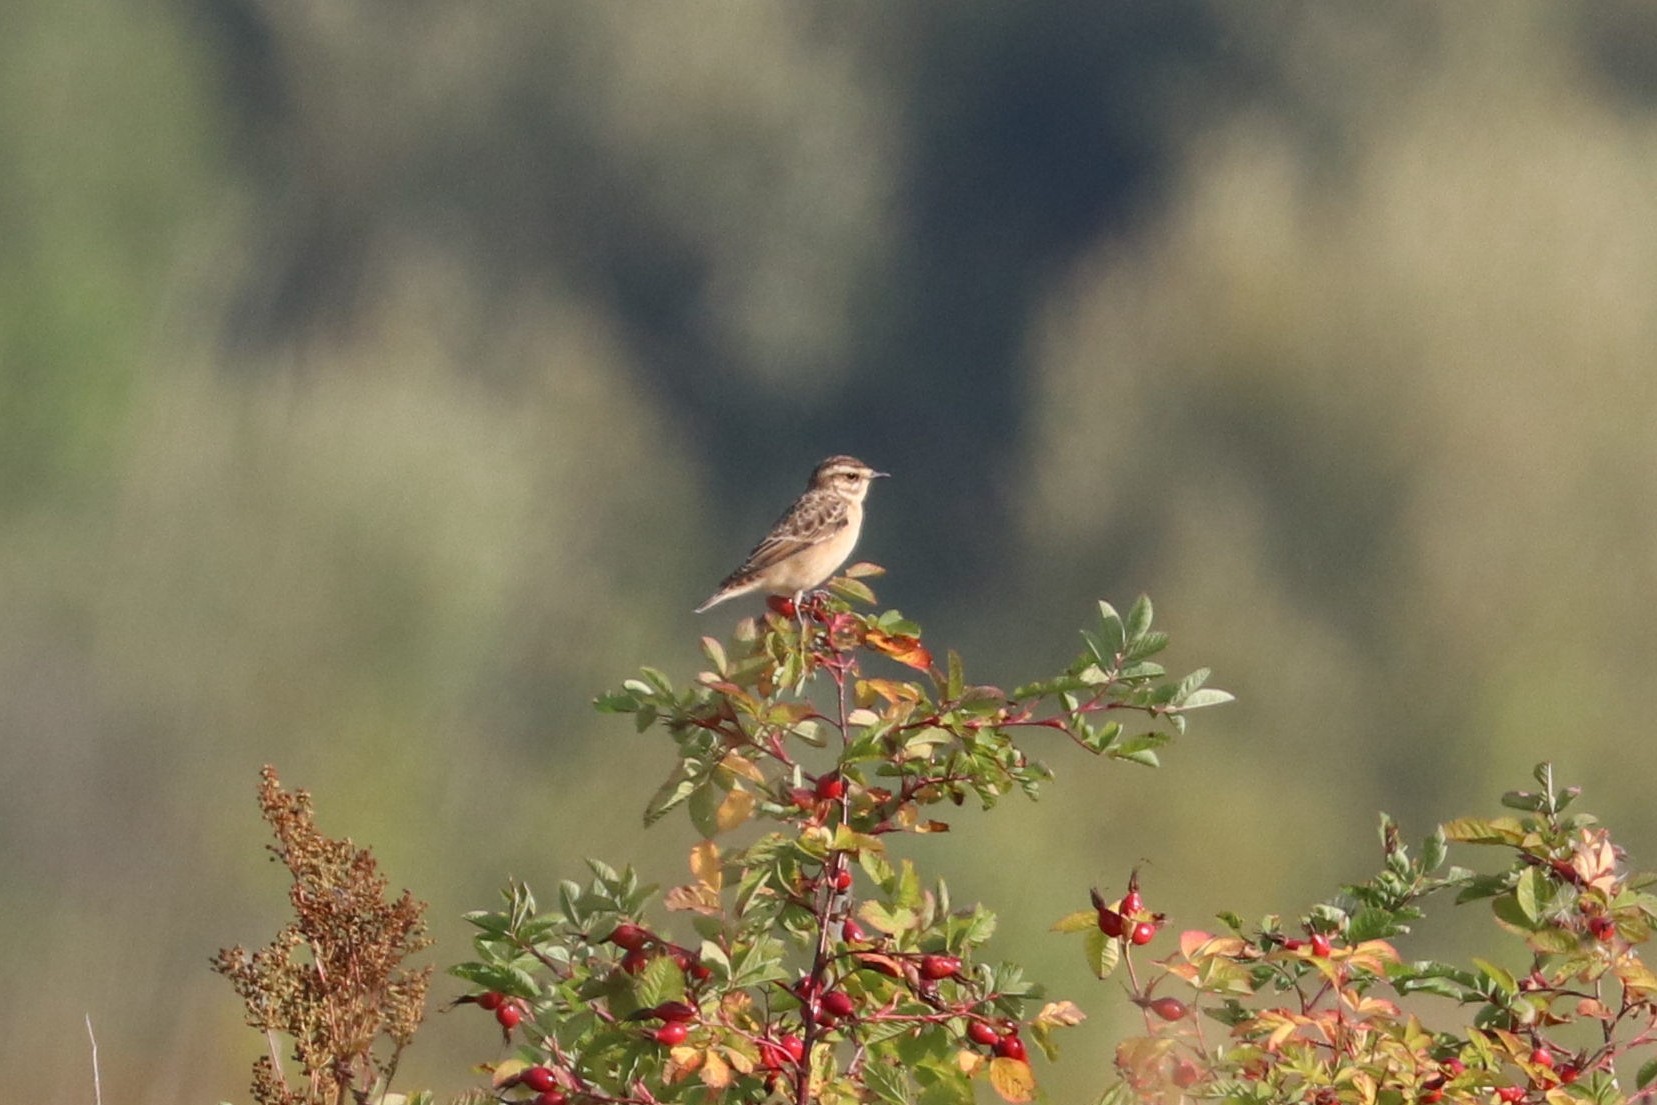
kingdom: Animalia
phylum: Chordata
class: Aves
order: Passeriformes
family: Muscicapidae
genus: Saxicola
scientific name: Saxicola rubetra
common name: Whinchat
